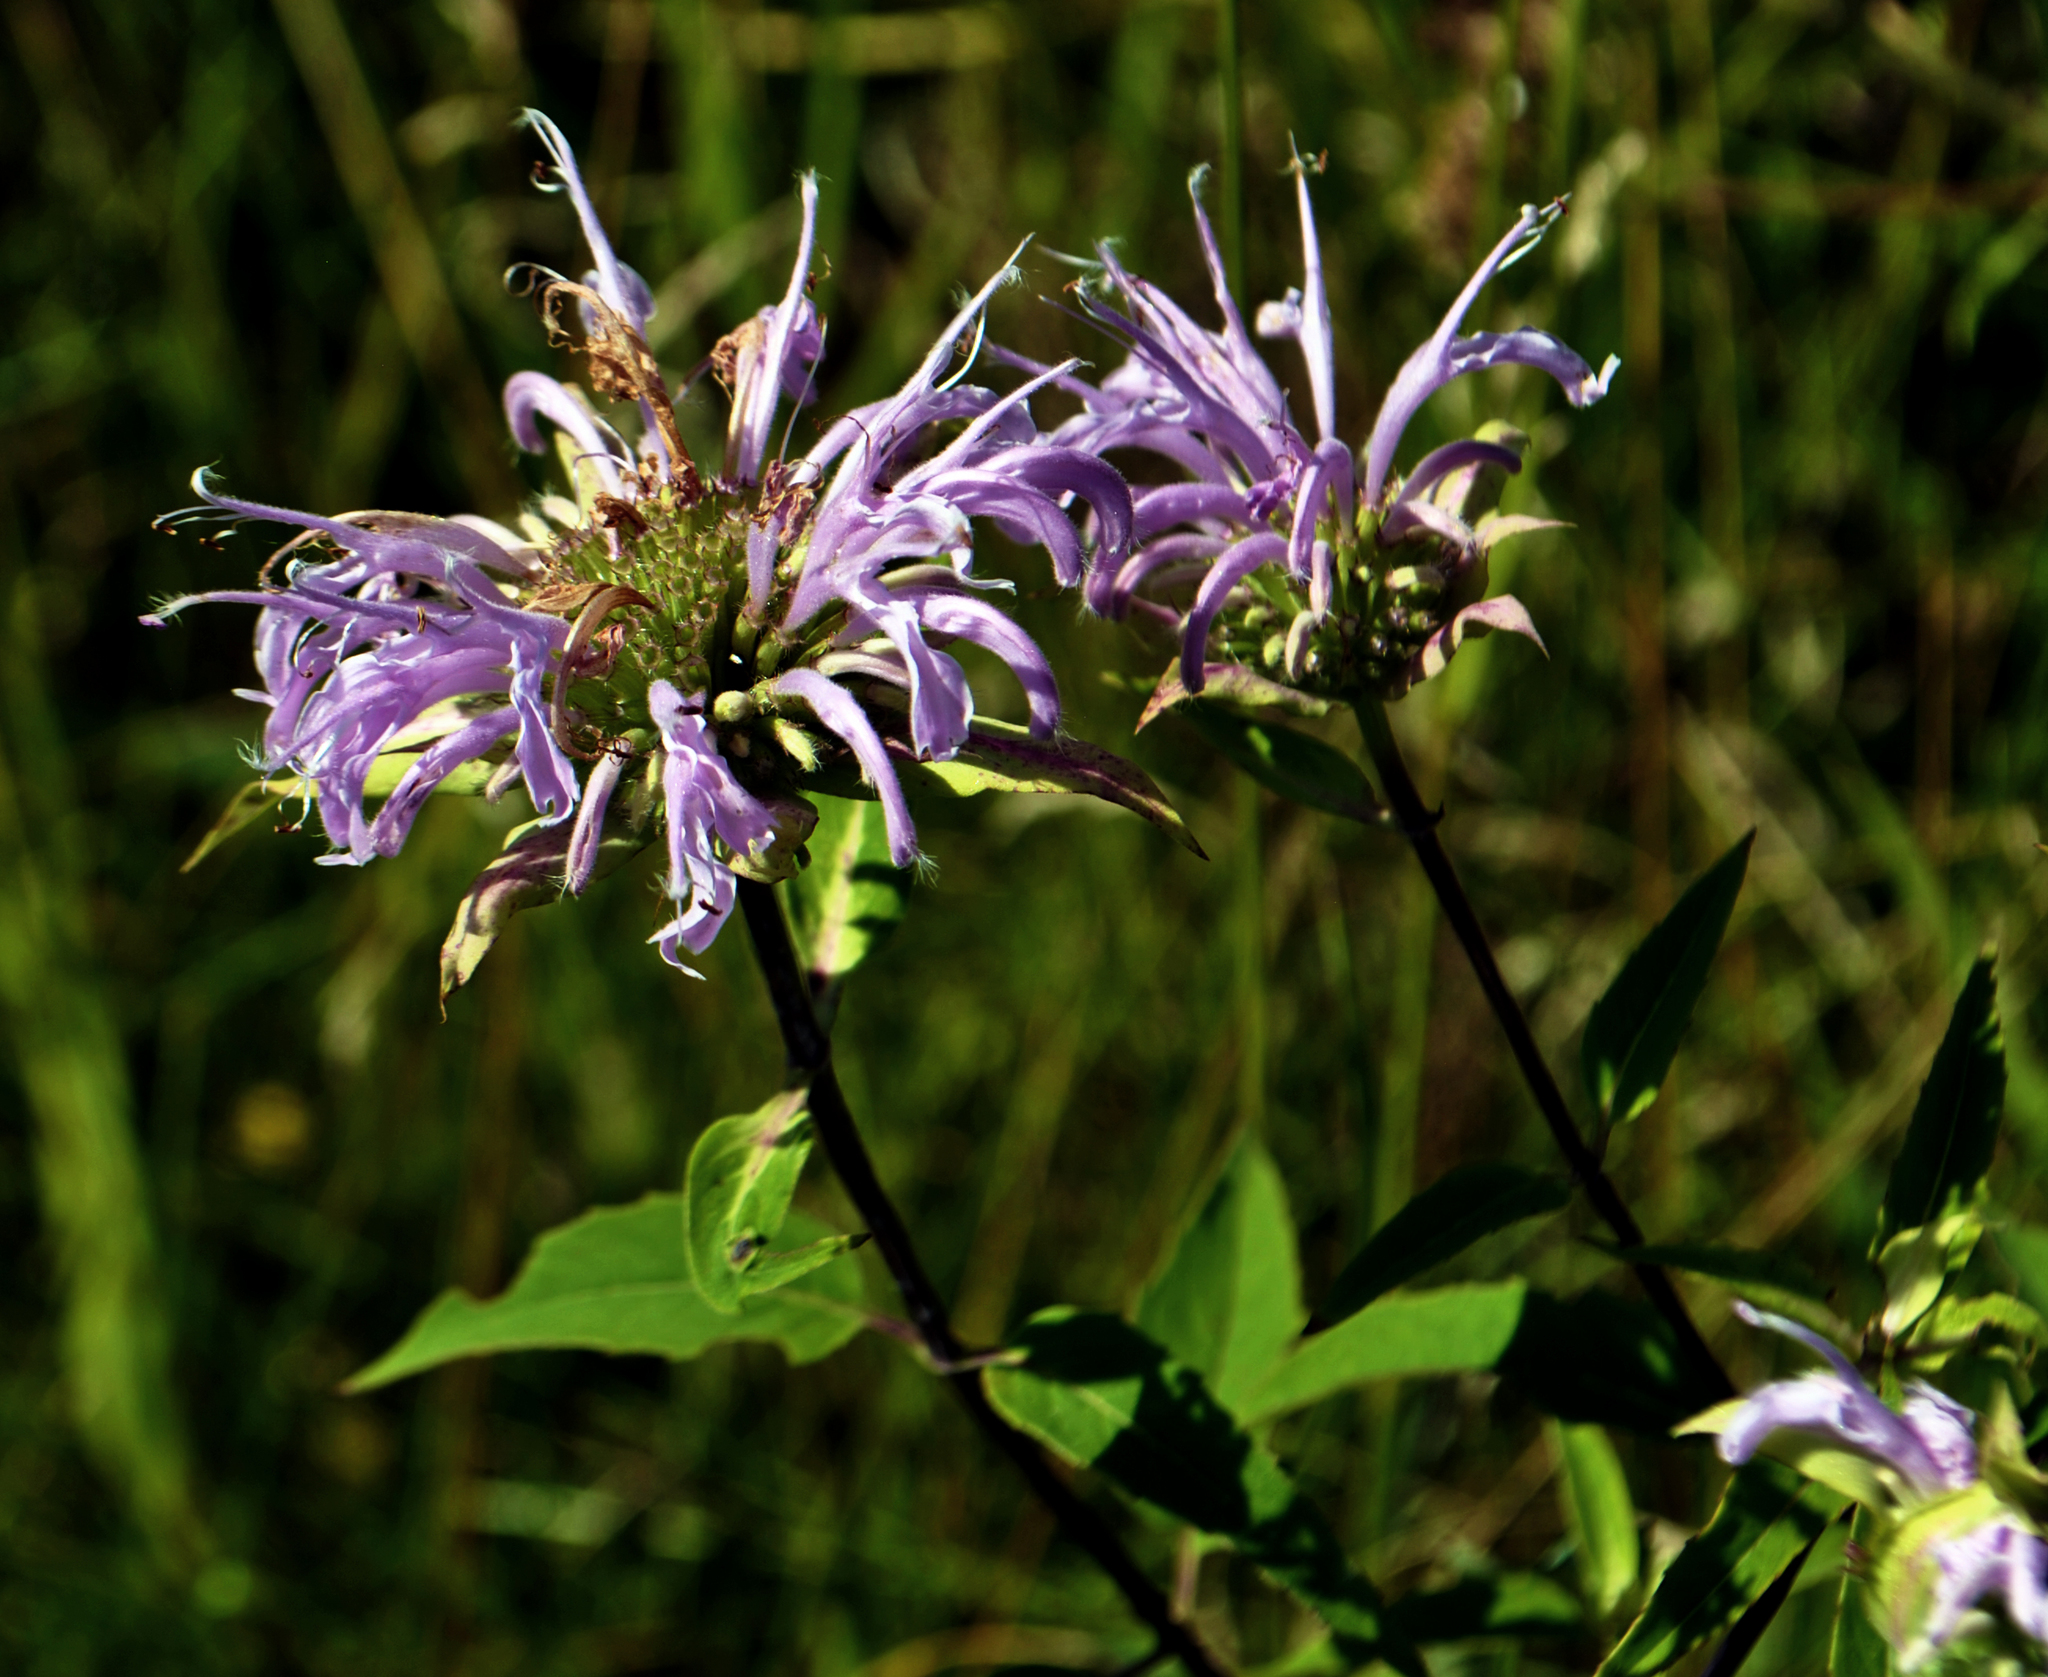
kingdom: Plantae
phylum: Tracheophyta
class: Magnoliopsida
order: Lamiales
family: Lamiaceae
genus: Monarda
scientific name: Monarda fistulosa
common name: Purple beebalm
